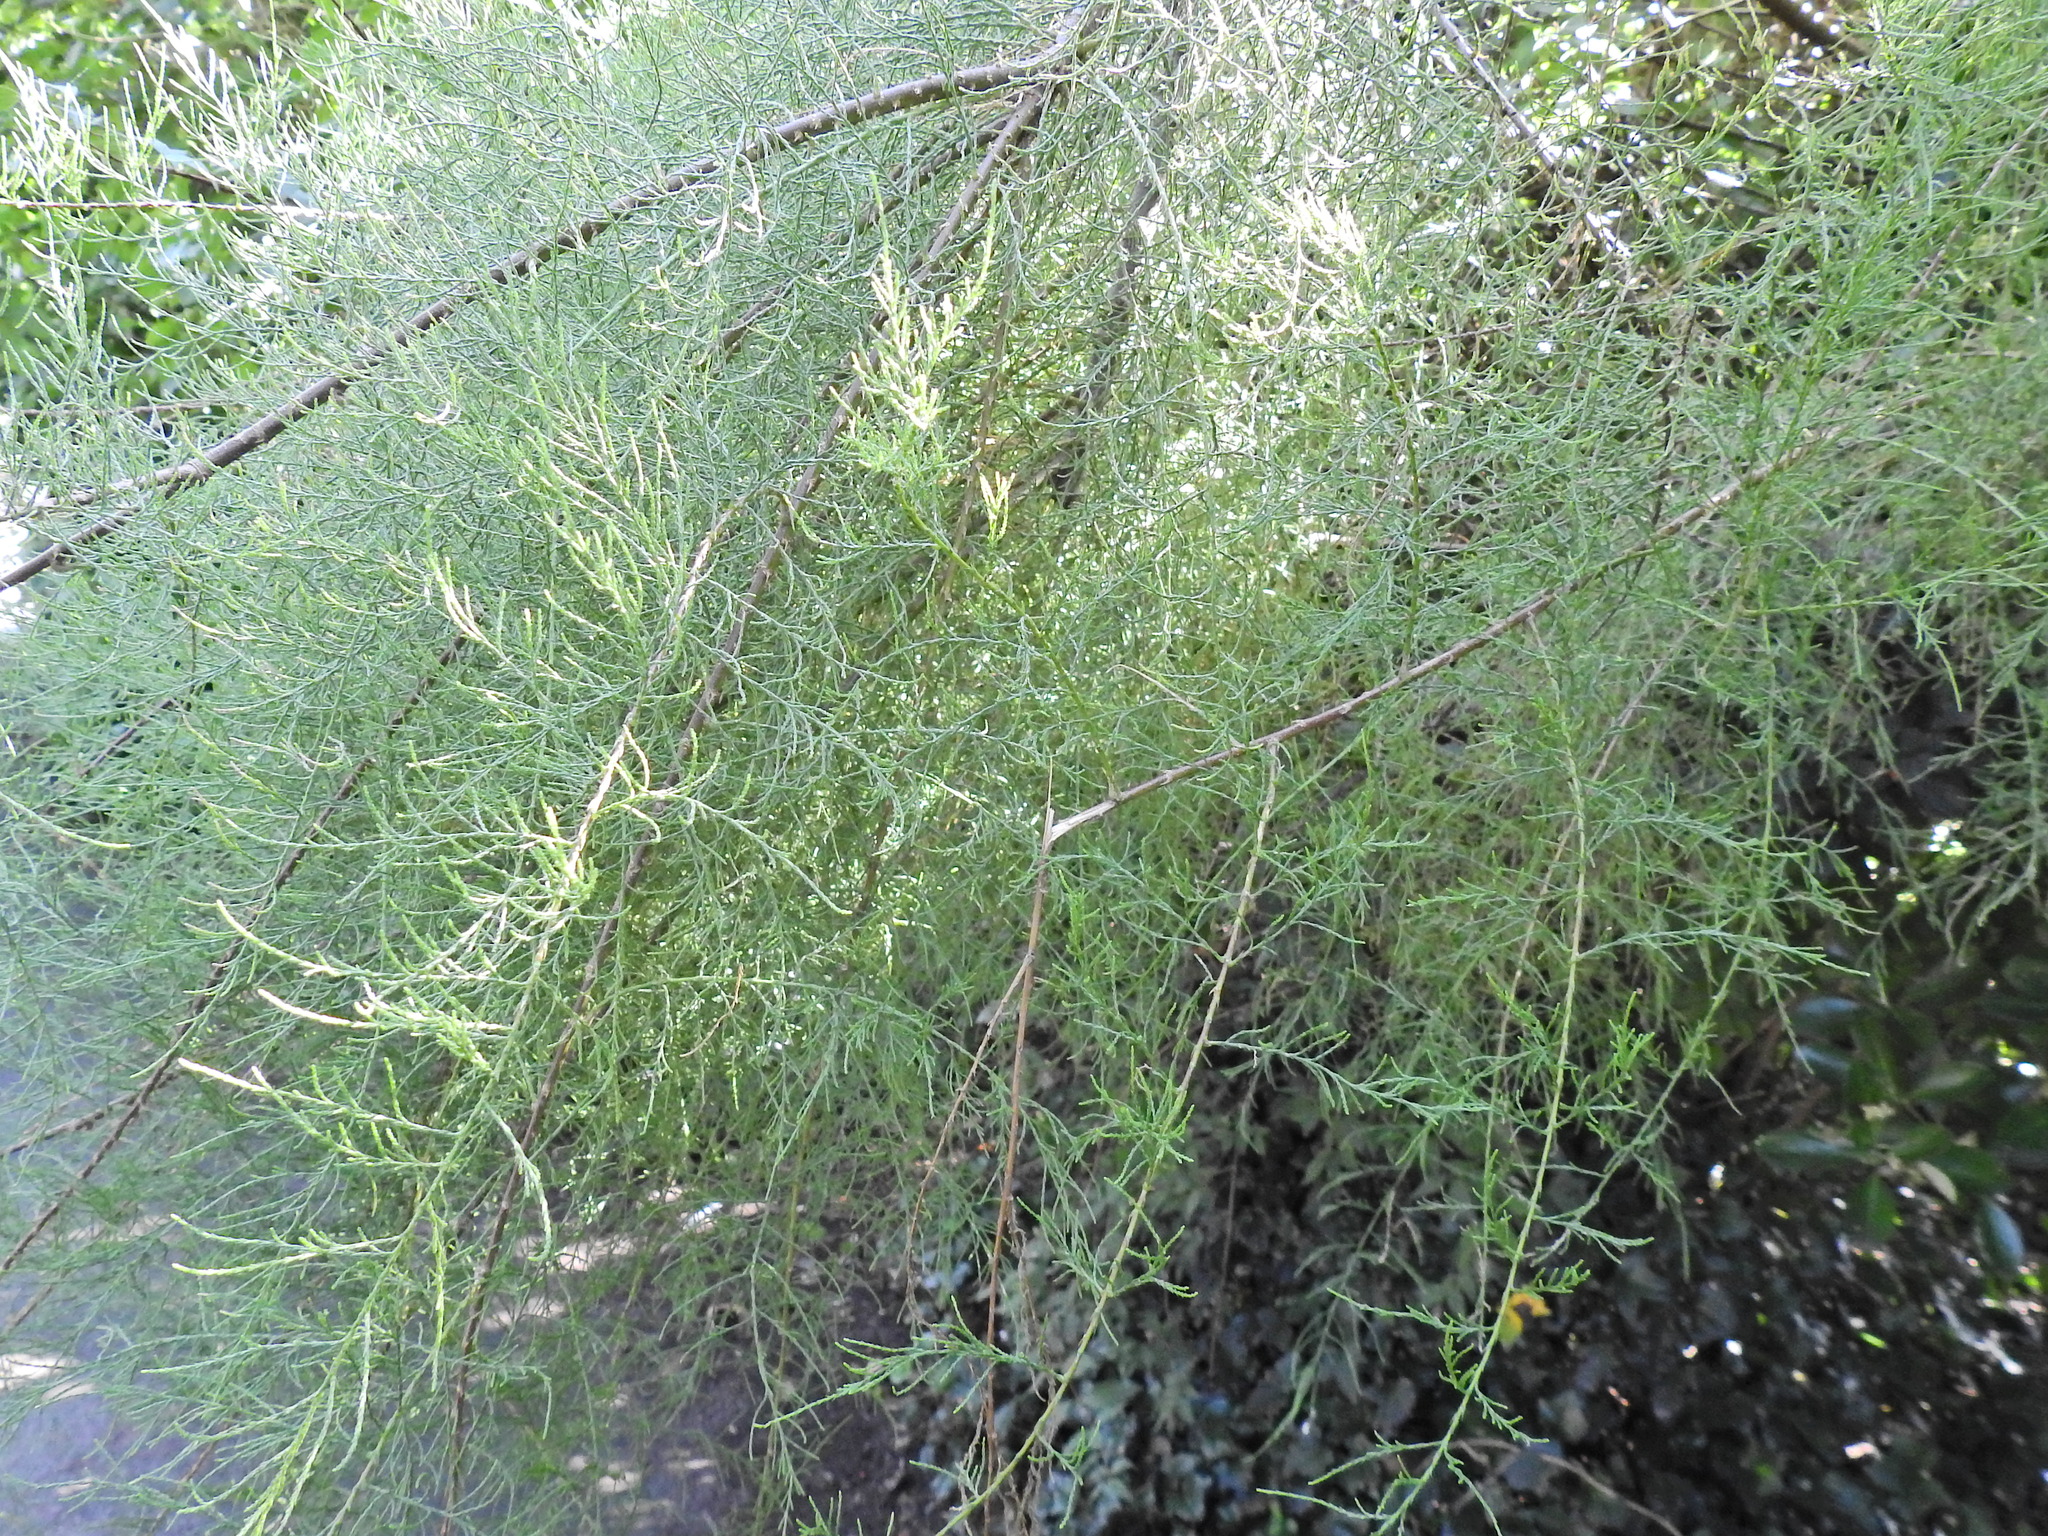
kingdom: Plantae
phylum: Tracheophyta
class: Magnoliopsida
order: Caryophyllales
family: Tamaricaceae
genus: Tamarix
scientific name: Tamarix gallica
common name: Tamarisk
